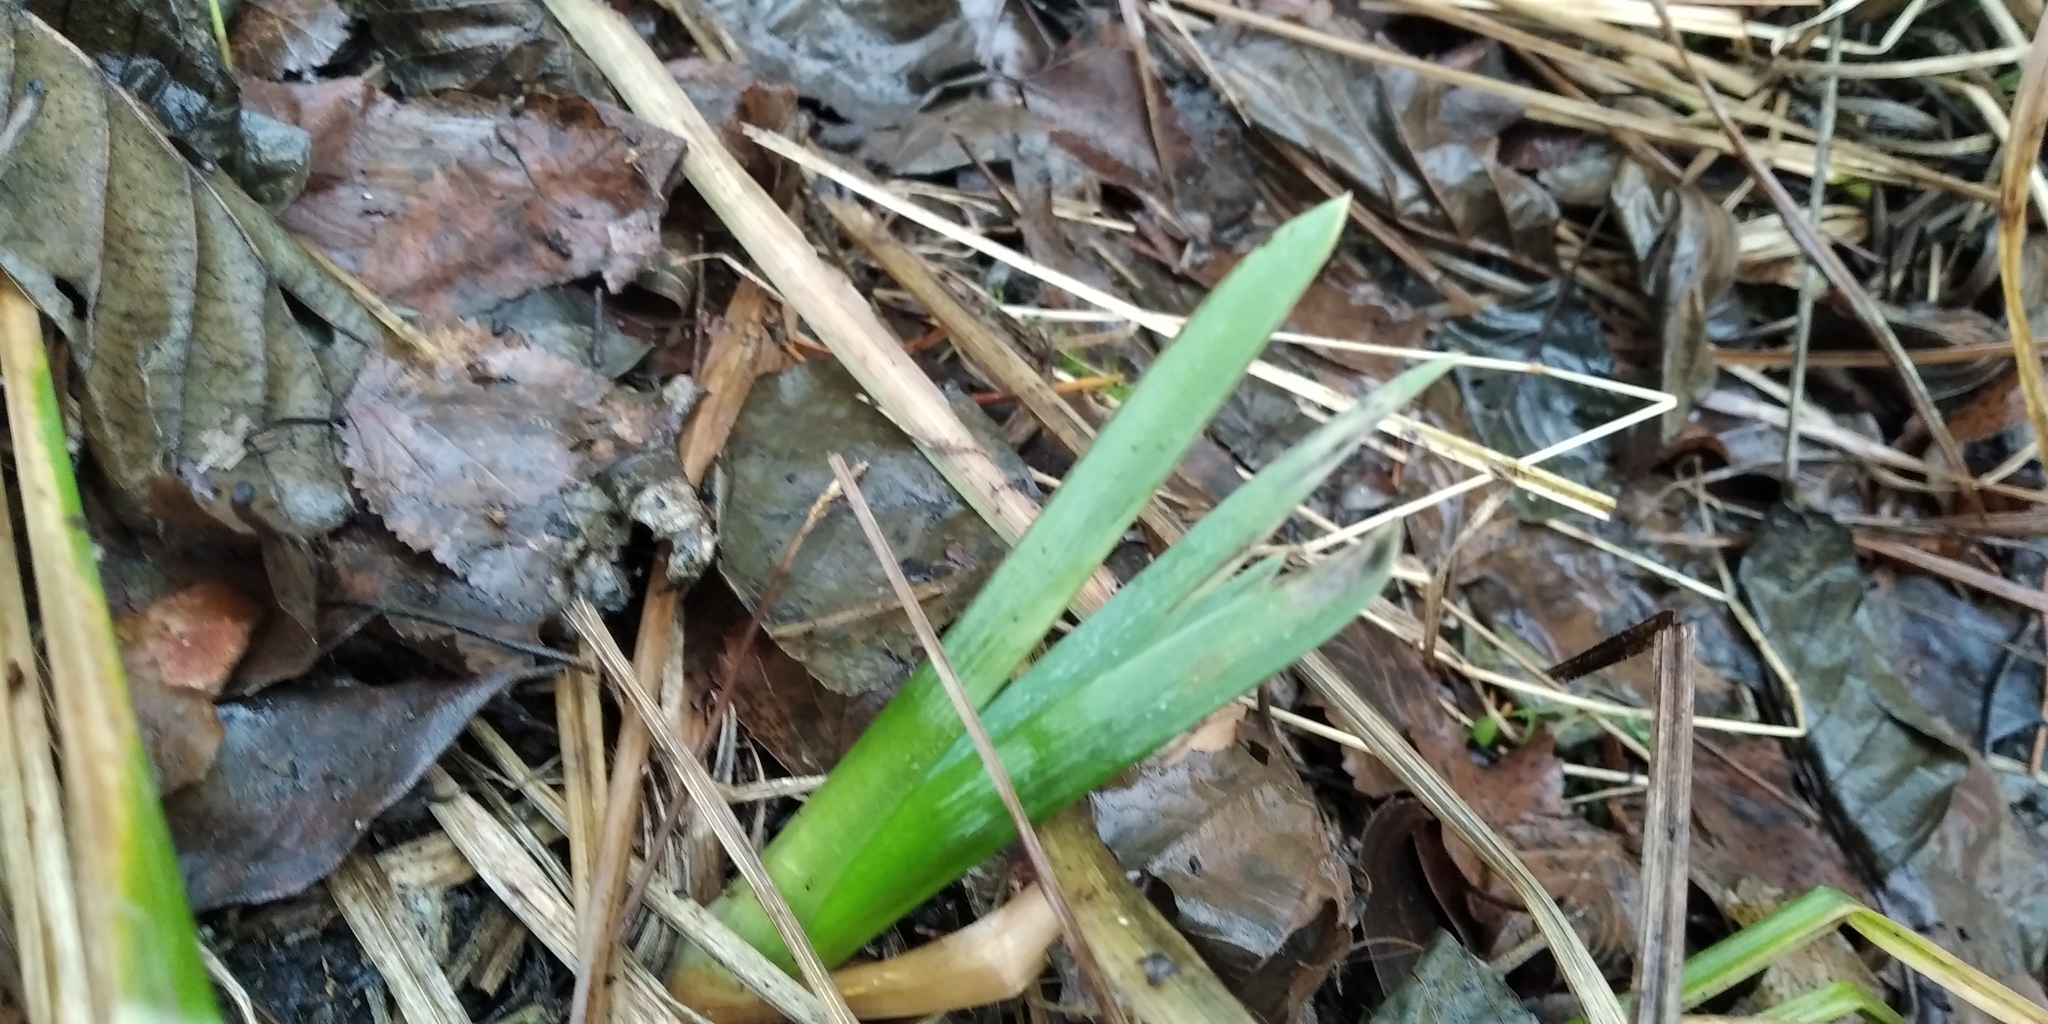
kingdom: Plantae
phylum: Tracheophyta
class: Liliopsida
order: Asparagales
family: Iridaceae
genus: Iris
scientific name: Iris pseudacorus
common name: Yellow flag
